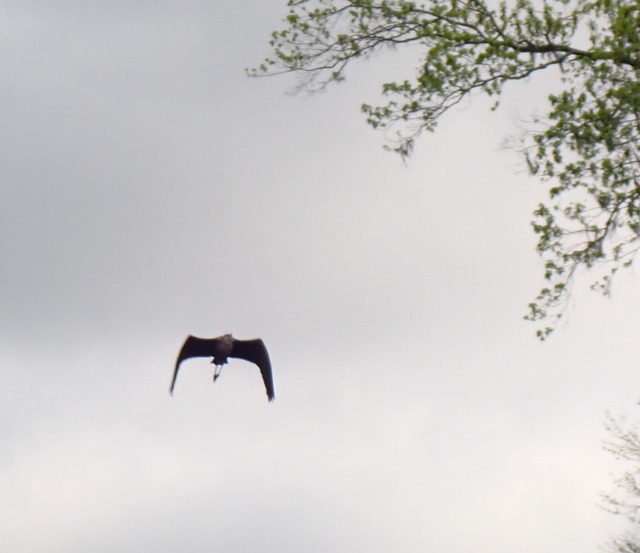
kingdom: Animalia
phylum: Chordata
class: Aves
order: Pelecaniformes
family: Ardeidae
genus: Ardea
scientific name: Ardea herodias
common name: Great blue heron
